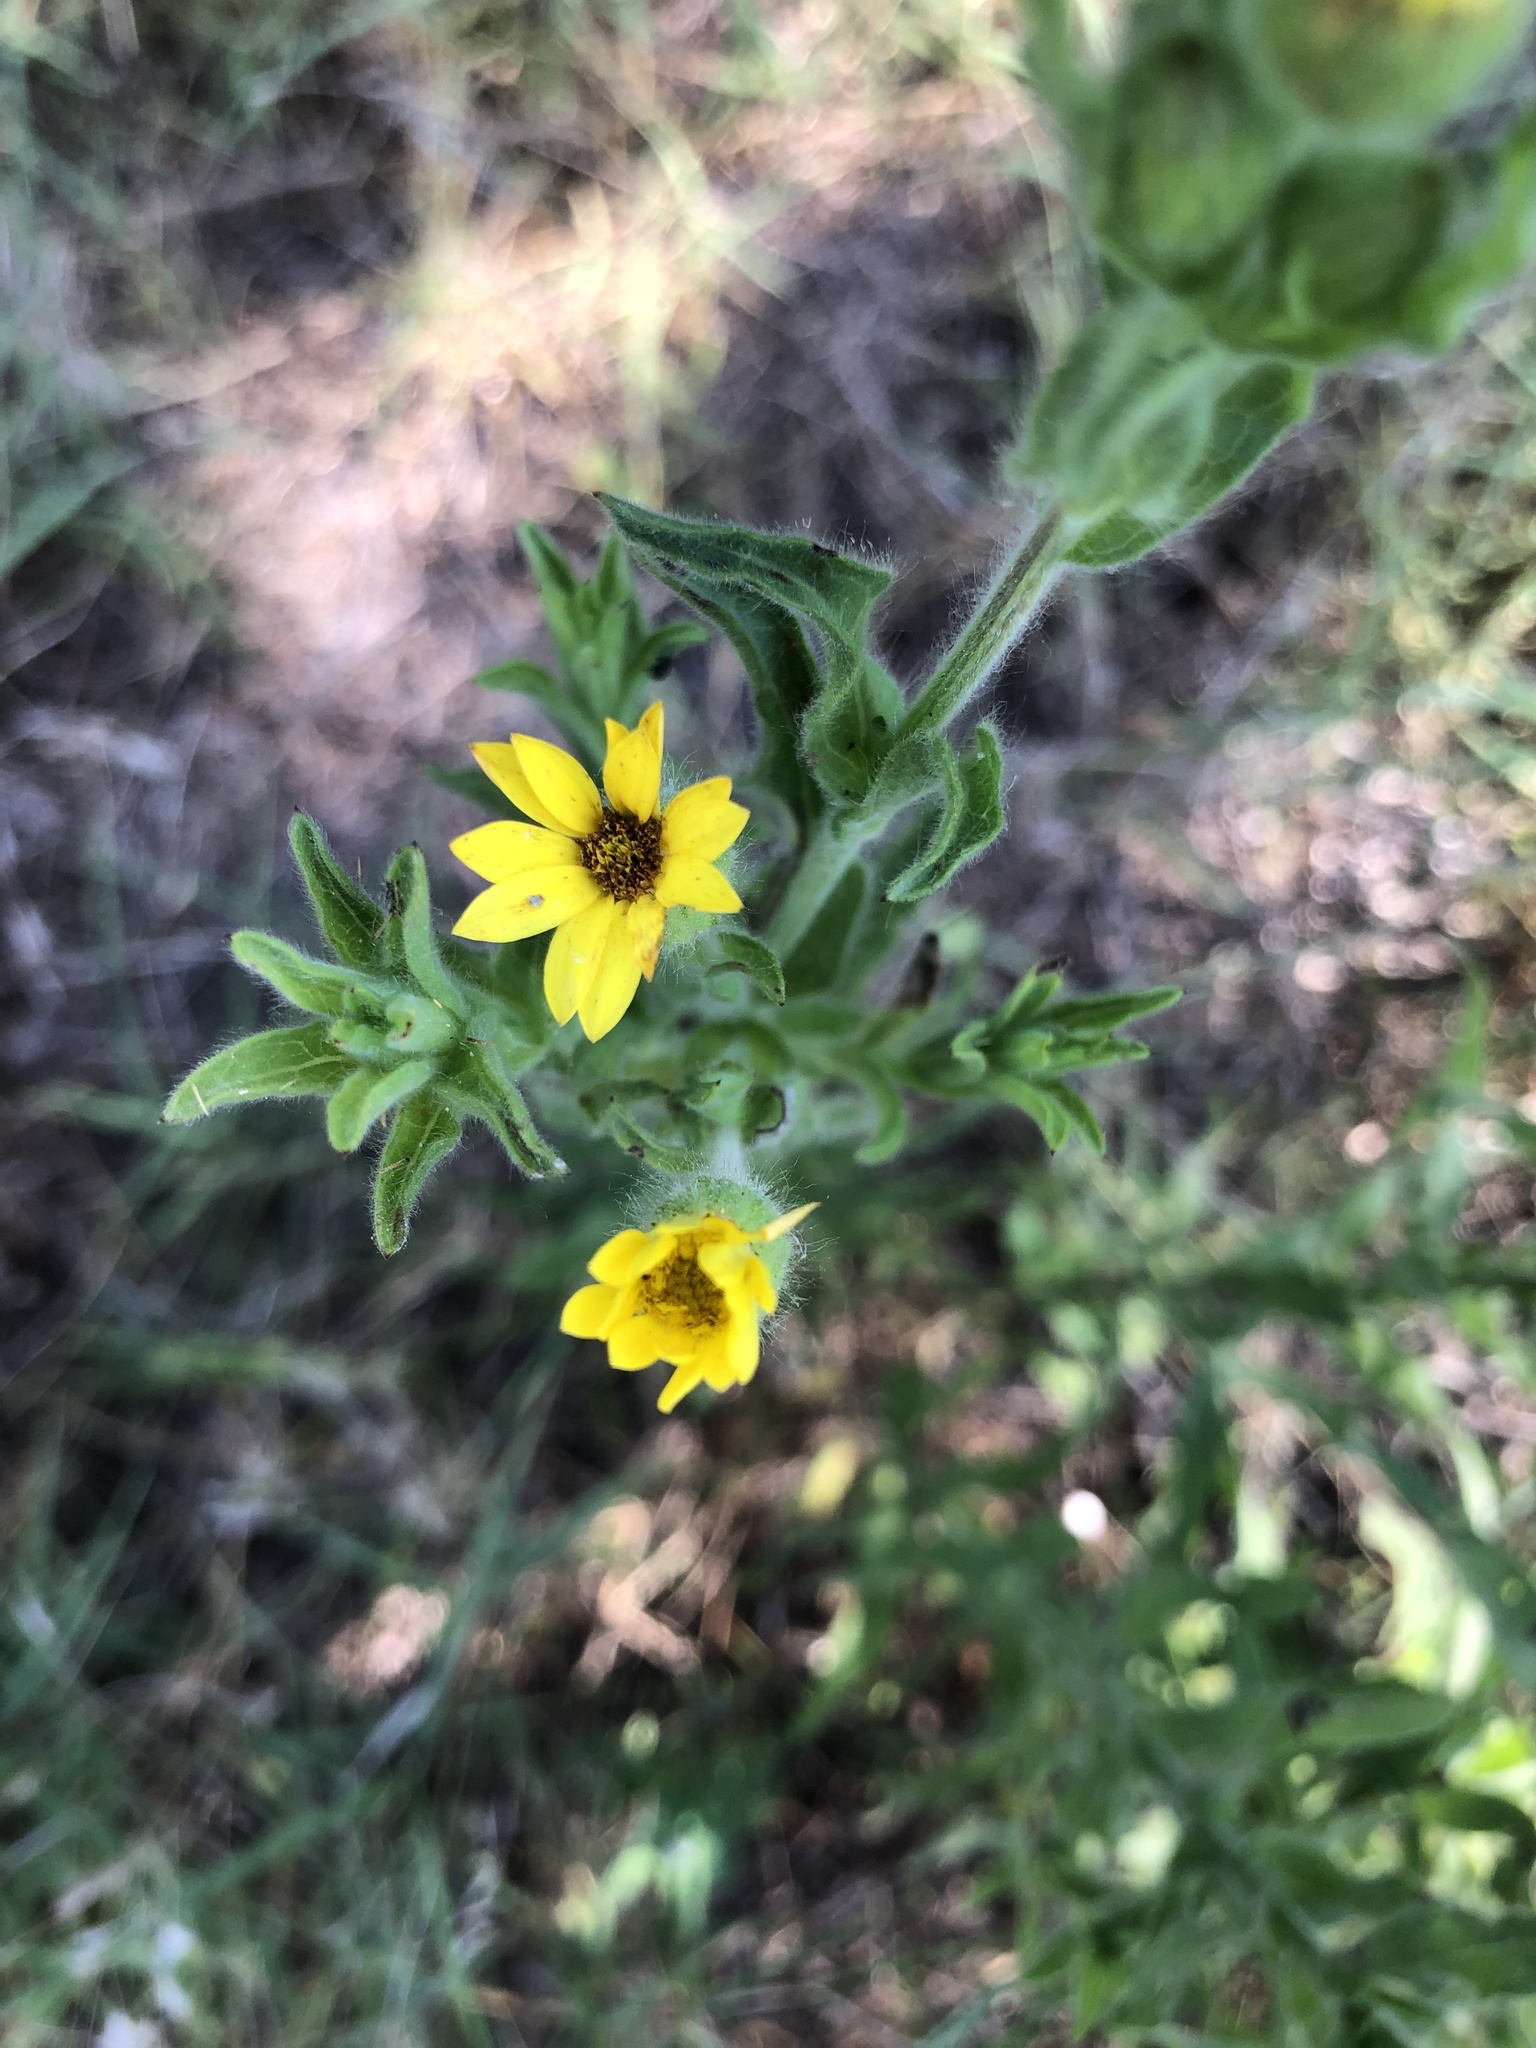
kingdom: Plantae
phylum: Tracheophyta
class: Magnoliopsida
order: Asterales
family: Asteraceae
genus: Bradburia
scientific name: Bradburia pilosa
